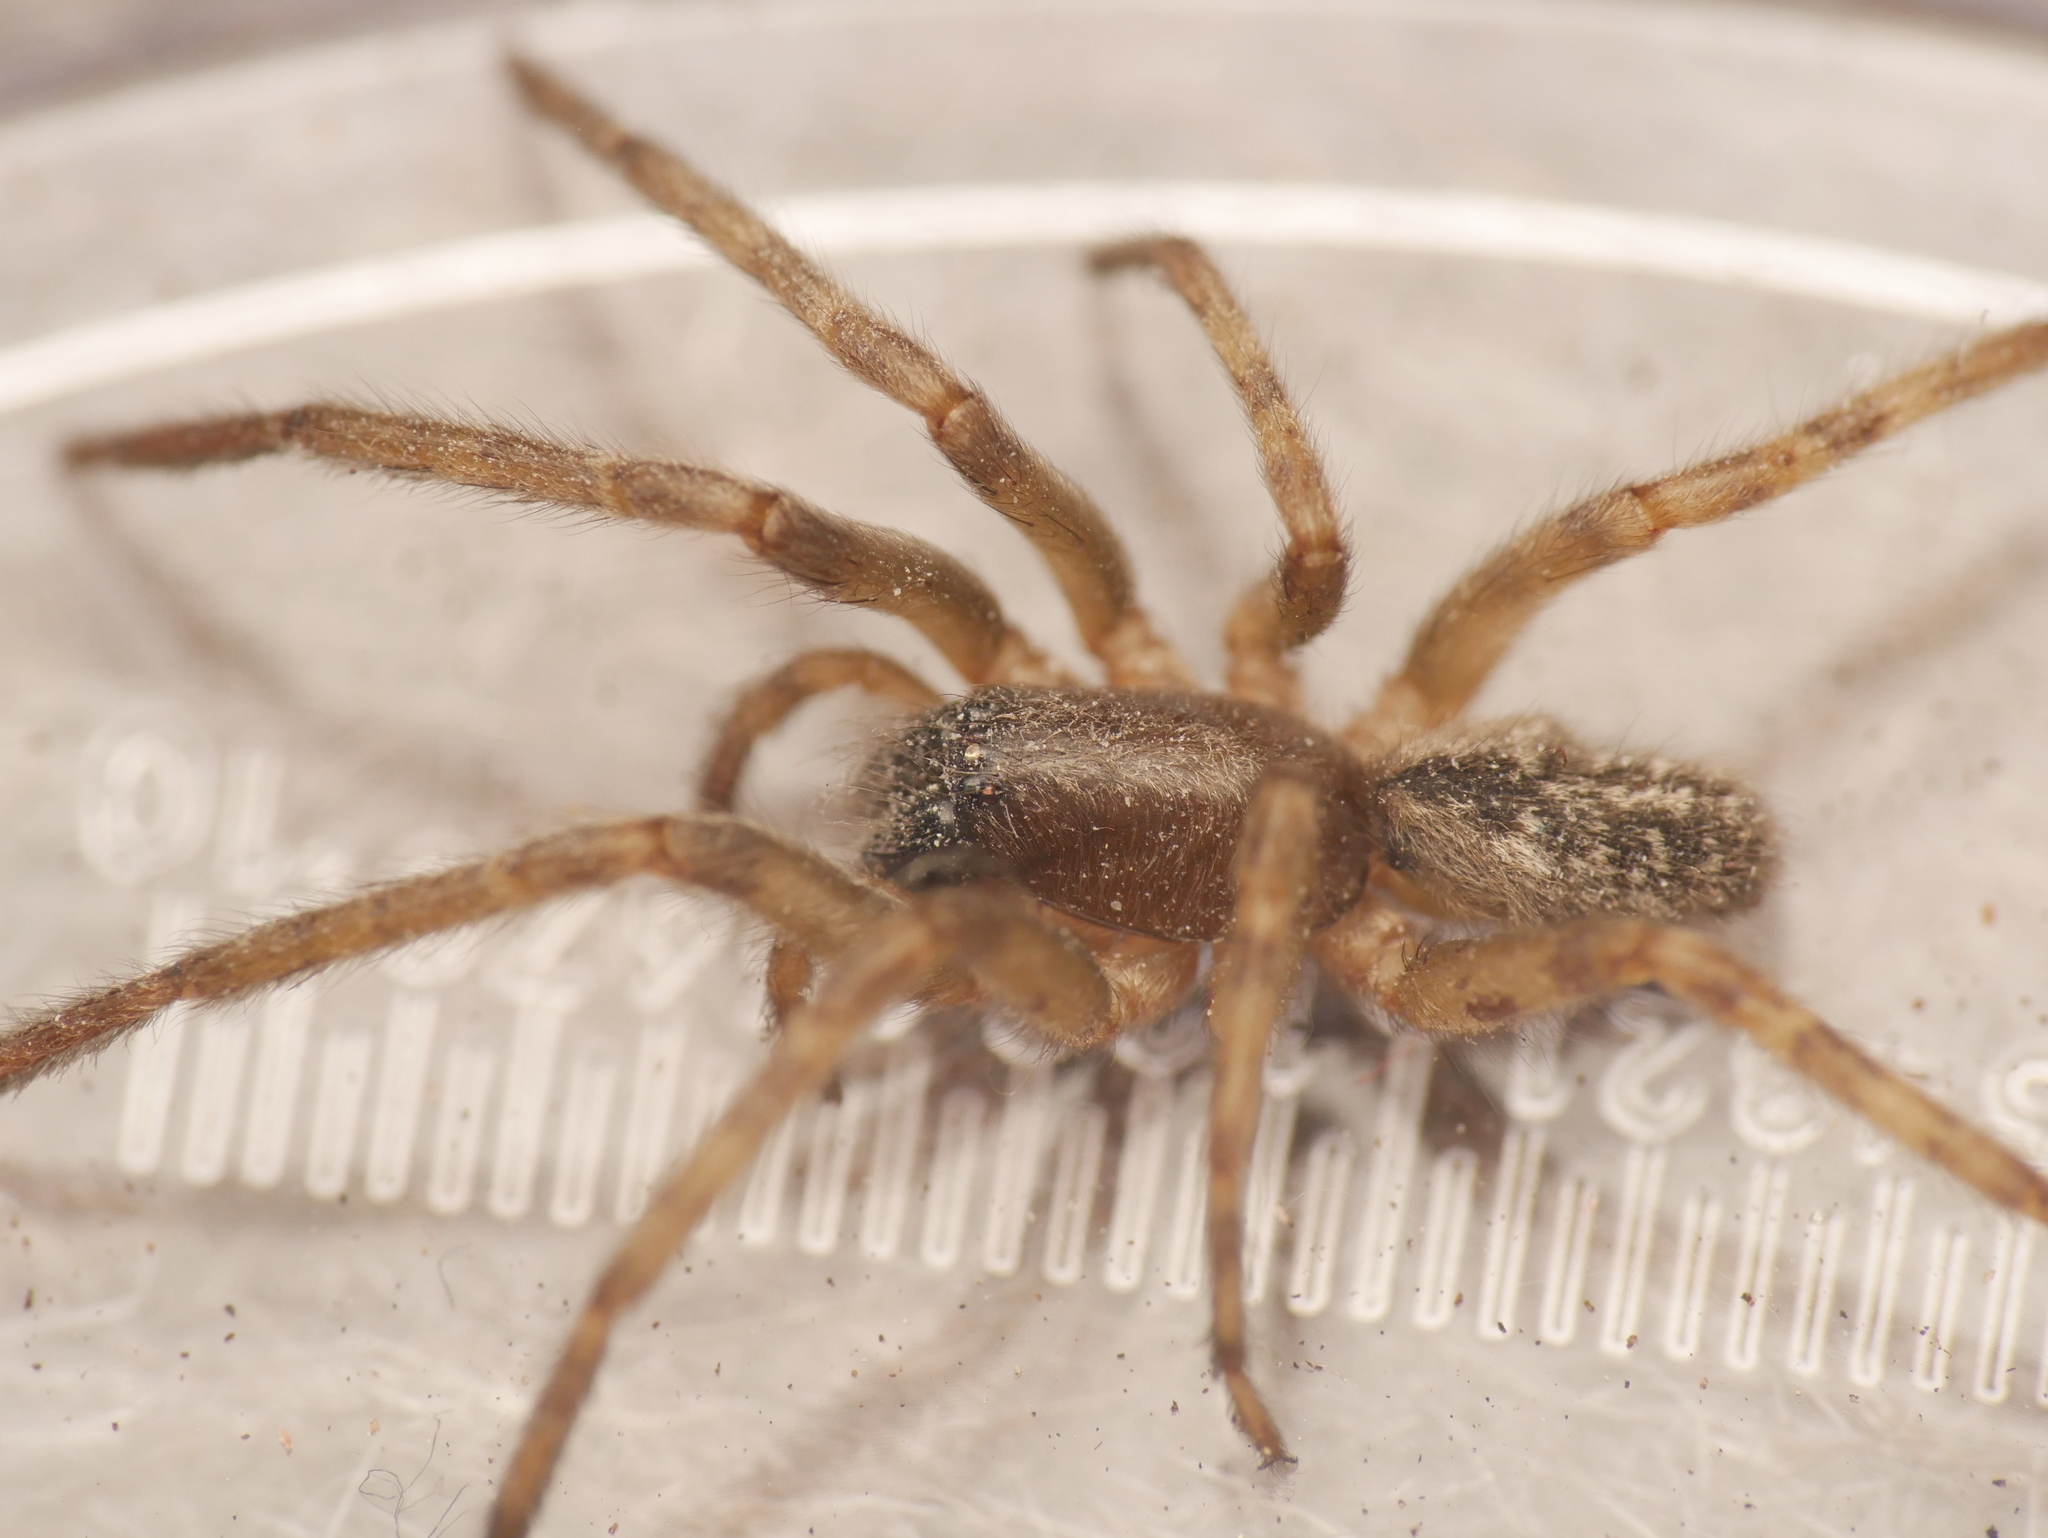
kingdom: Animalia
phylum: Arthropoda
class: Arachnida
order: Araneae
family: Segestriidae
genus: Segestria
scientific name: Segestria bavarica
